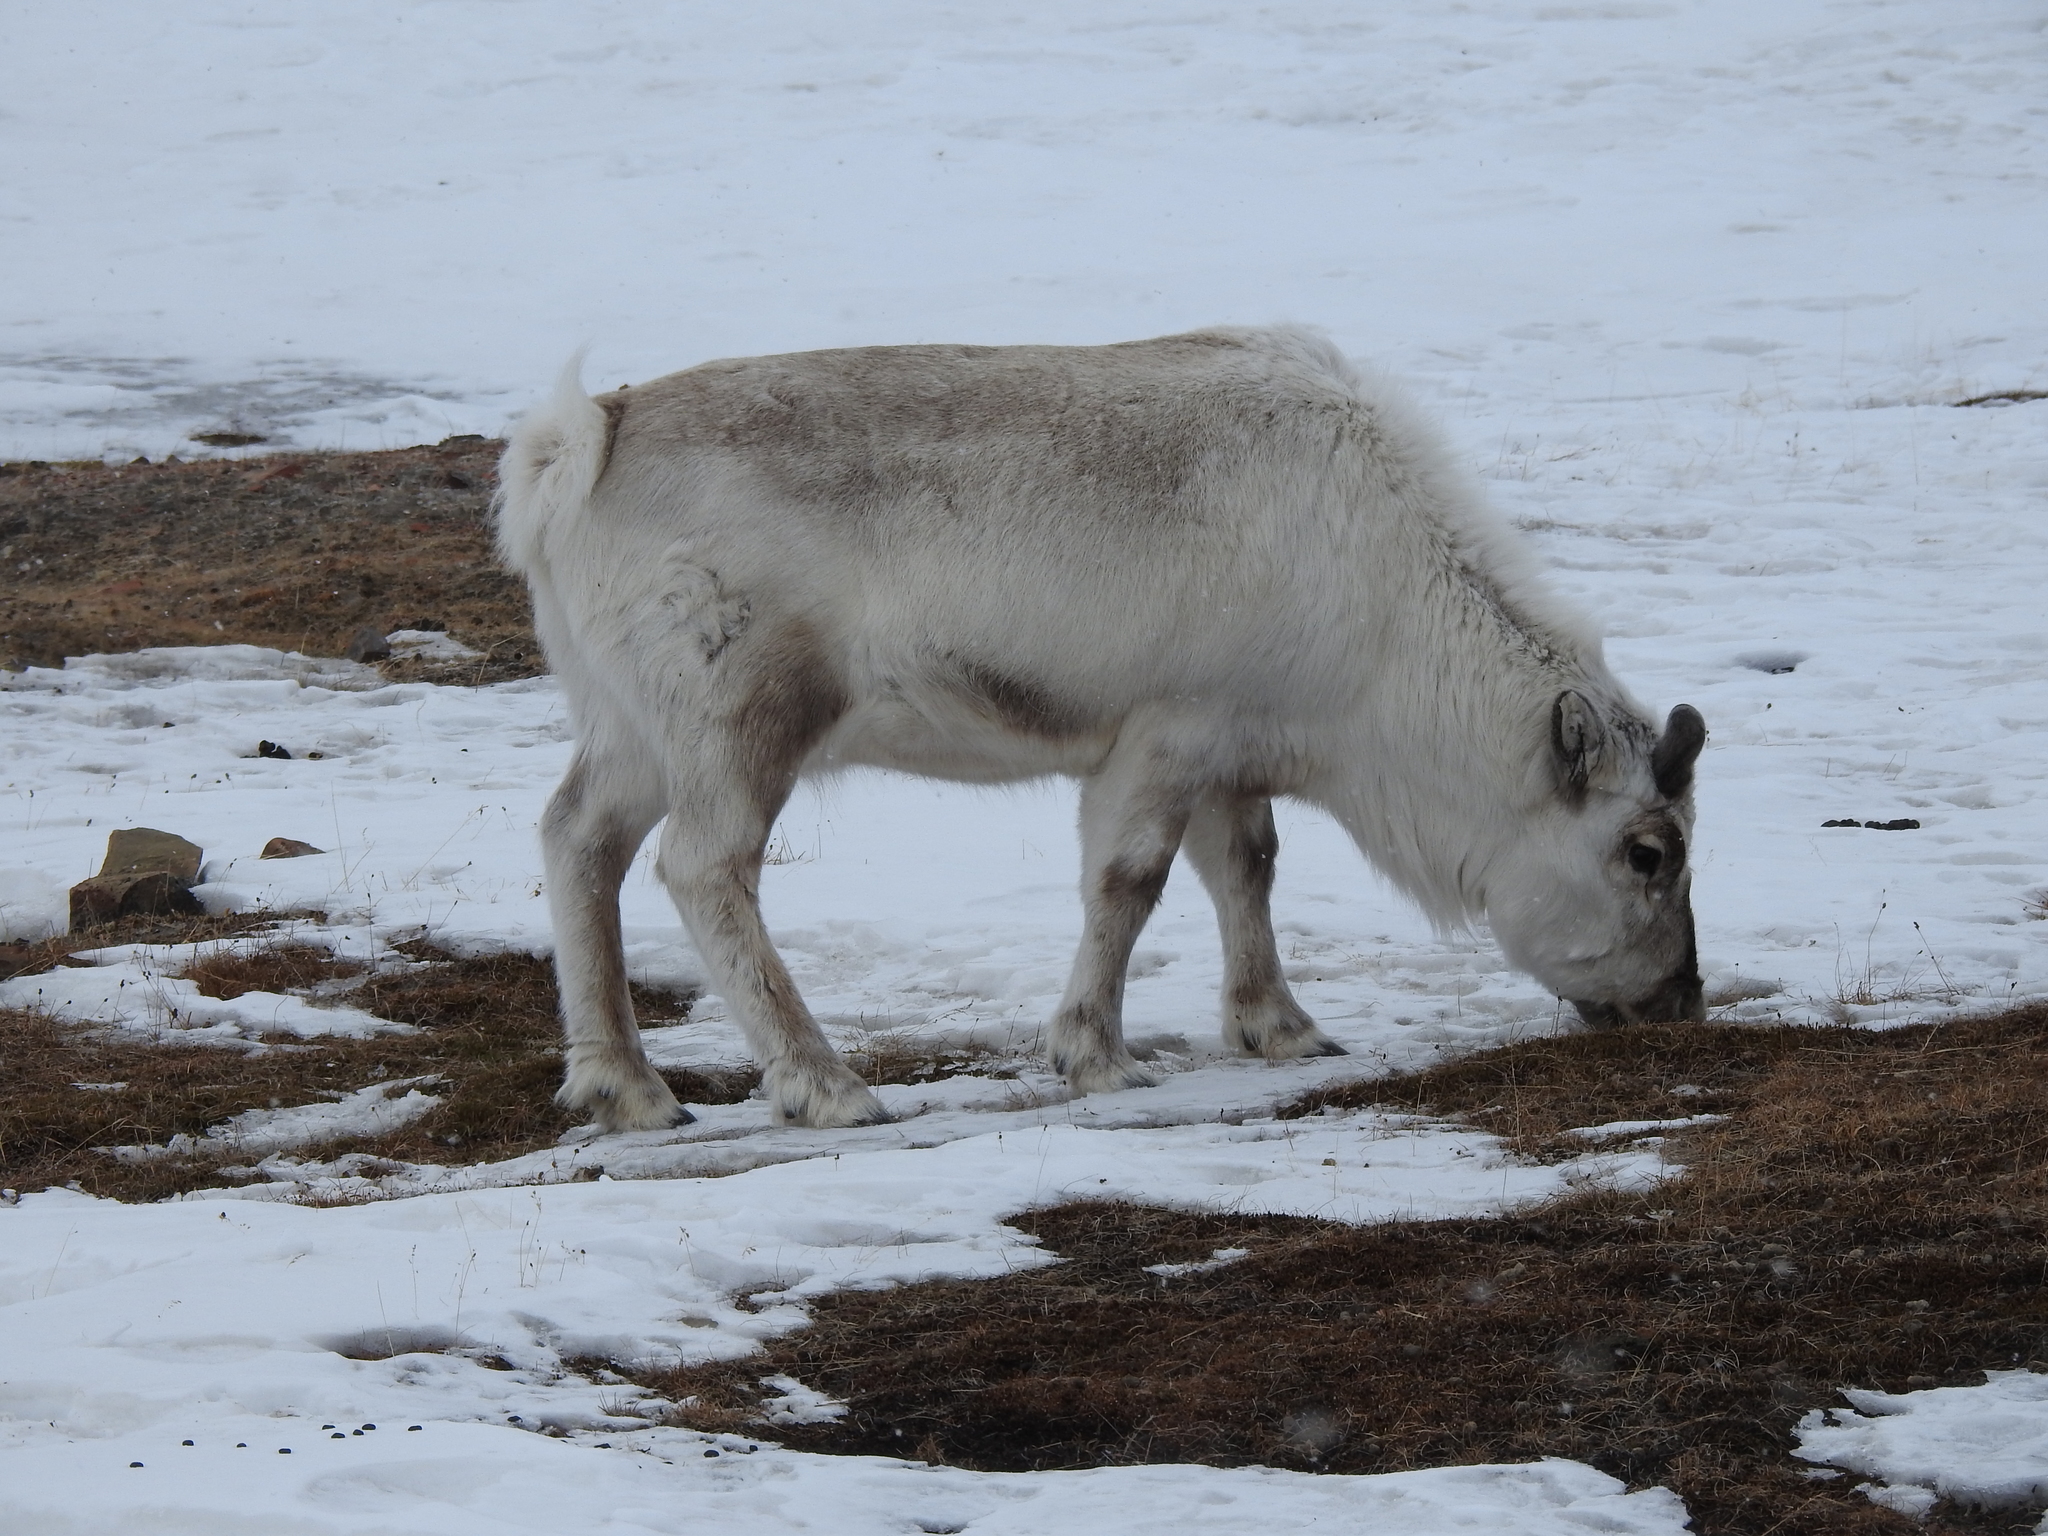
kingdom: Animalia
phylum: Chordata
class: Mammalia
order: Artiodactyla
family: Cervidae
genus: Rangifer
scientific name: Rangifer tarandus
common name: Reindeer
